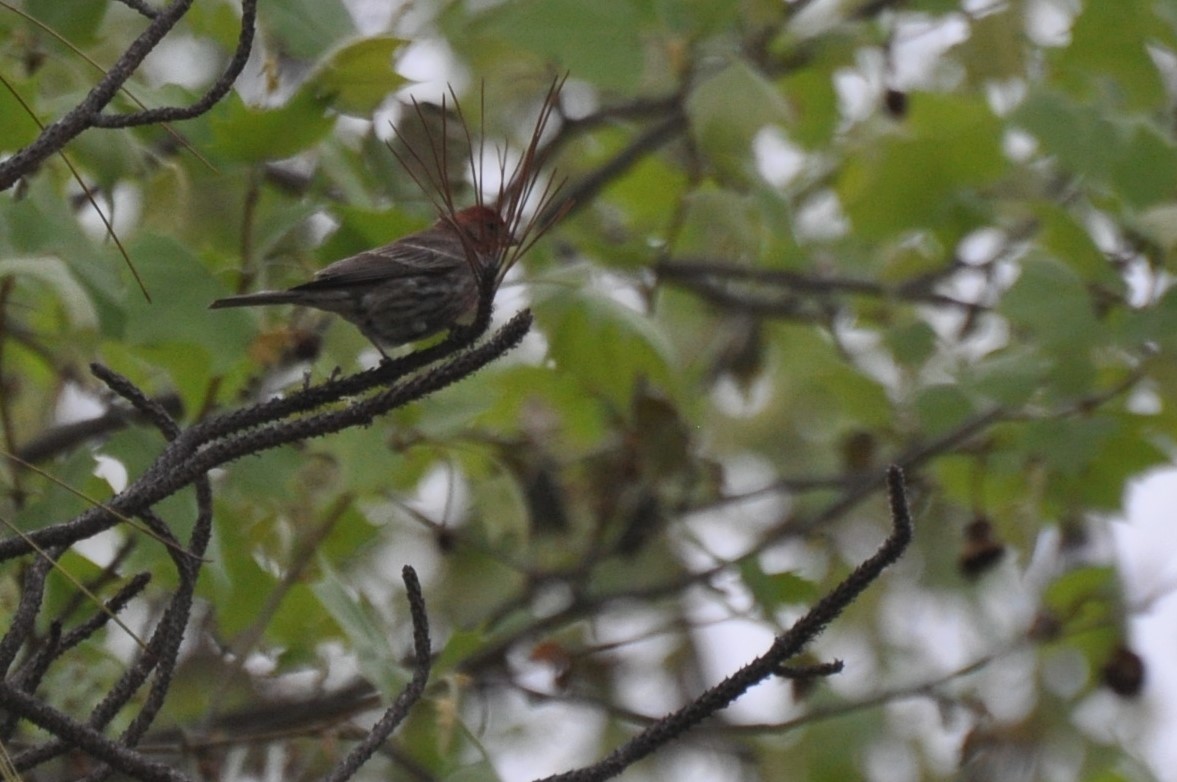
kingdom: Animalia
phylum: Chordata
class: Aves
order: Passeriformes
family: Fringillidae
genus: Haemorhous
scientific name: Haemorhous mexicanus
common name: House finch
